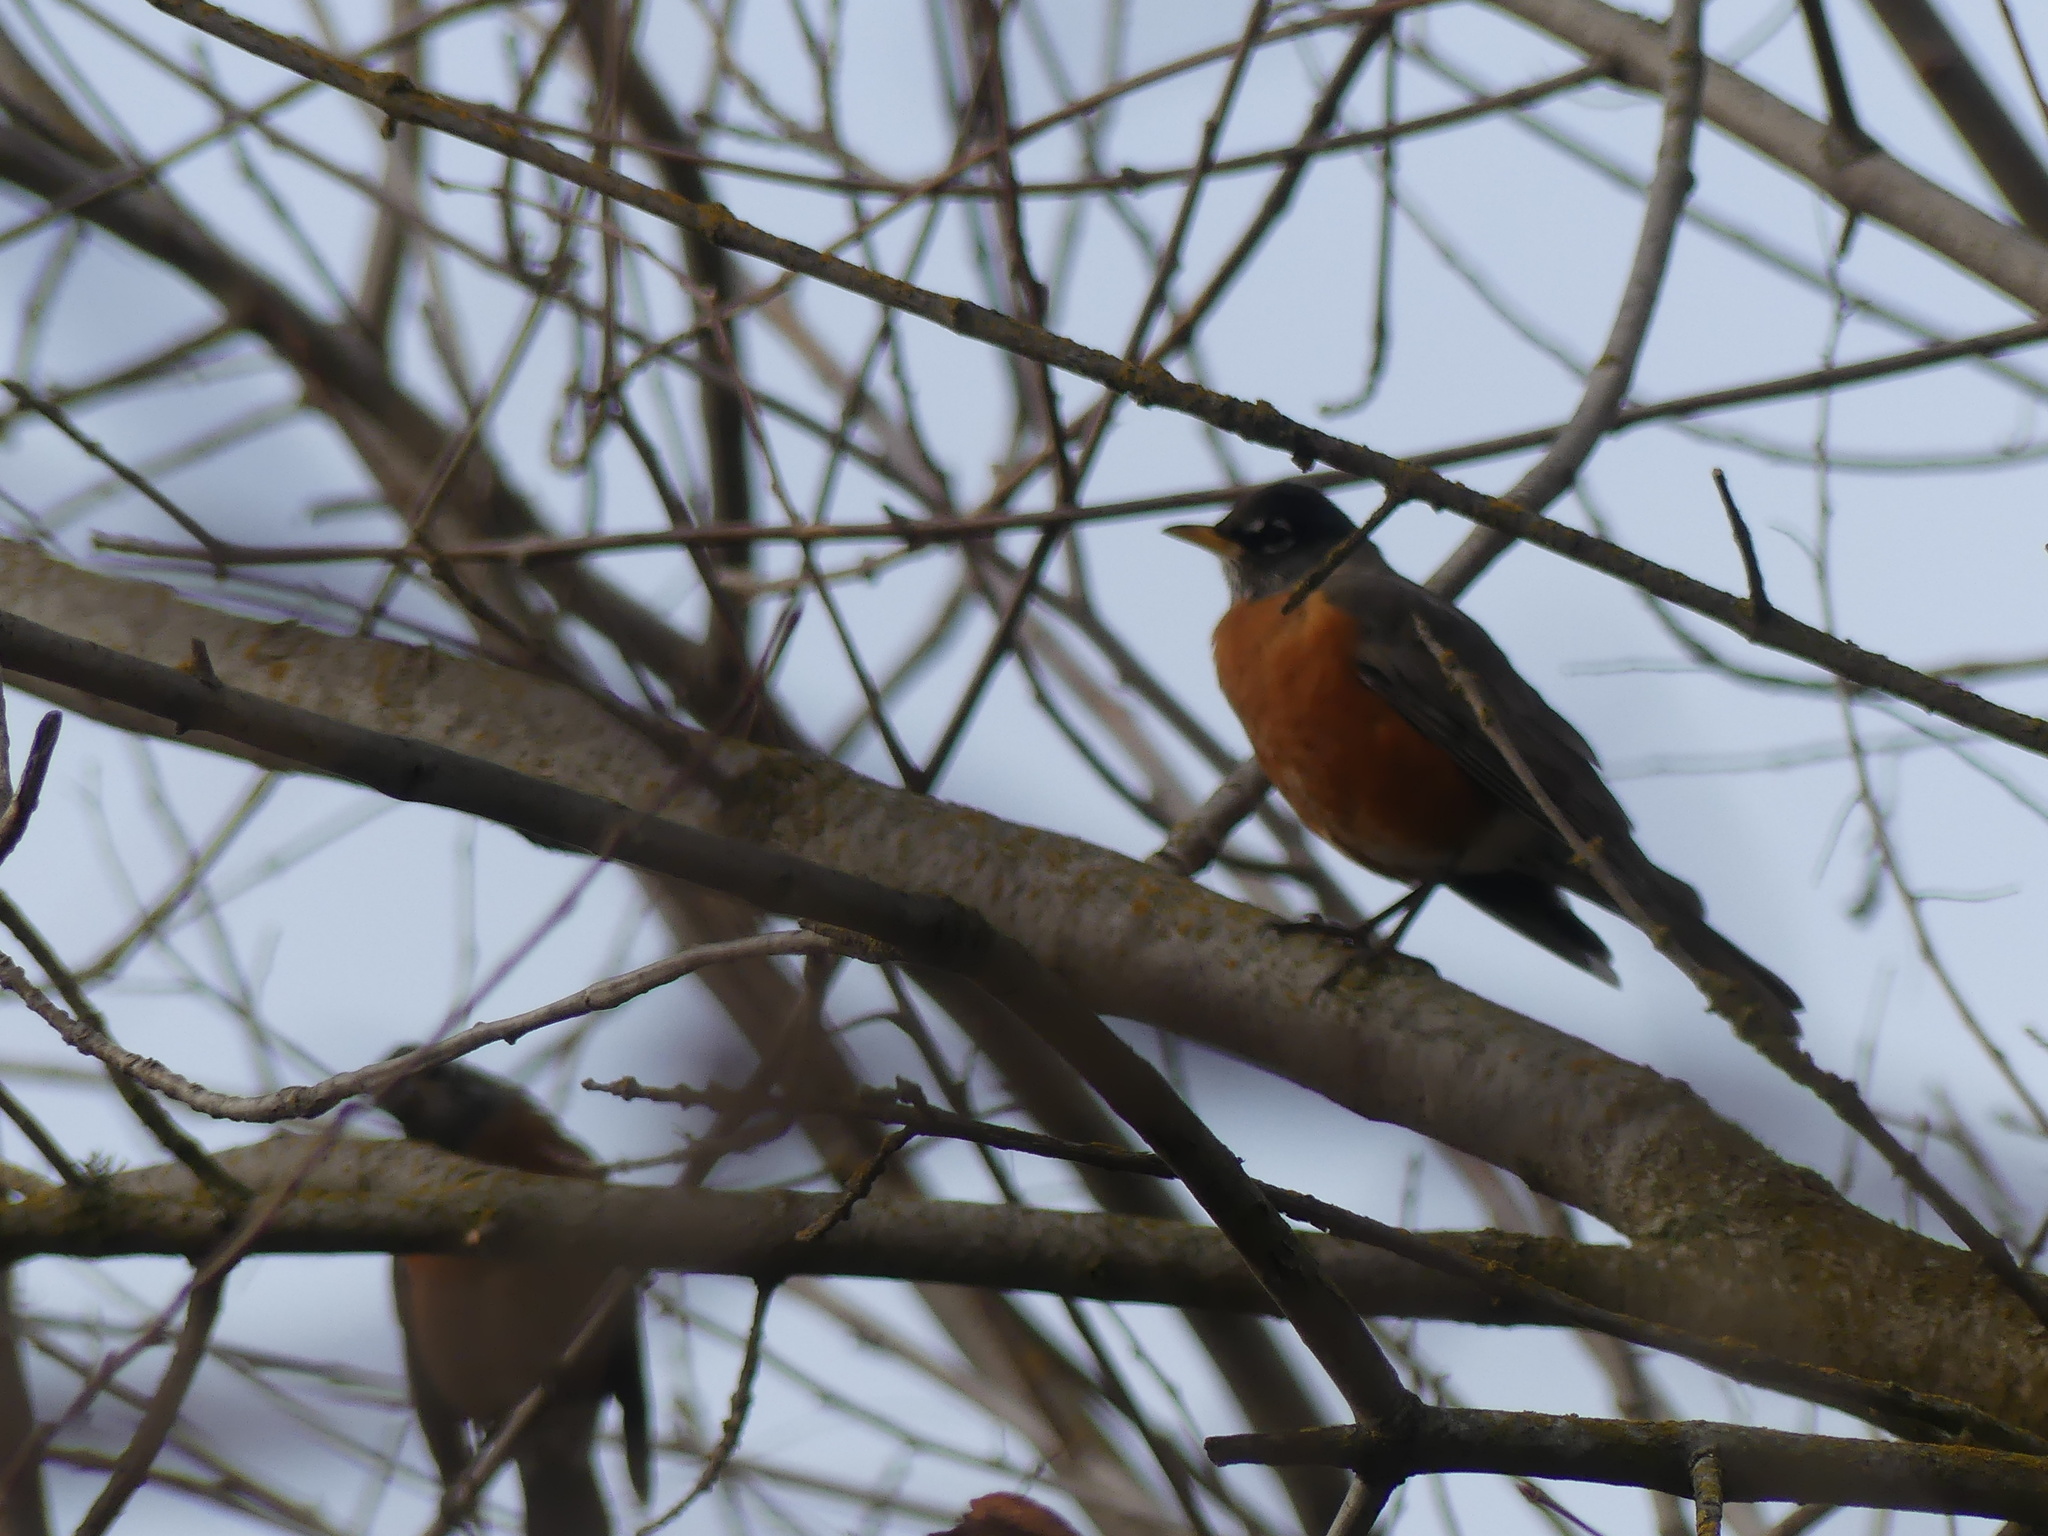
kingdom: Animalia
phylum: Chordata
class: Aves
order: Passeriformes
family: Turdidae
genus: Turdus
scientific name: Turdus migratorius
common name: American robin
